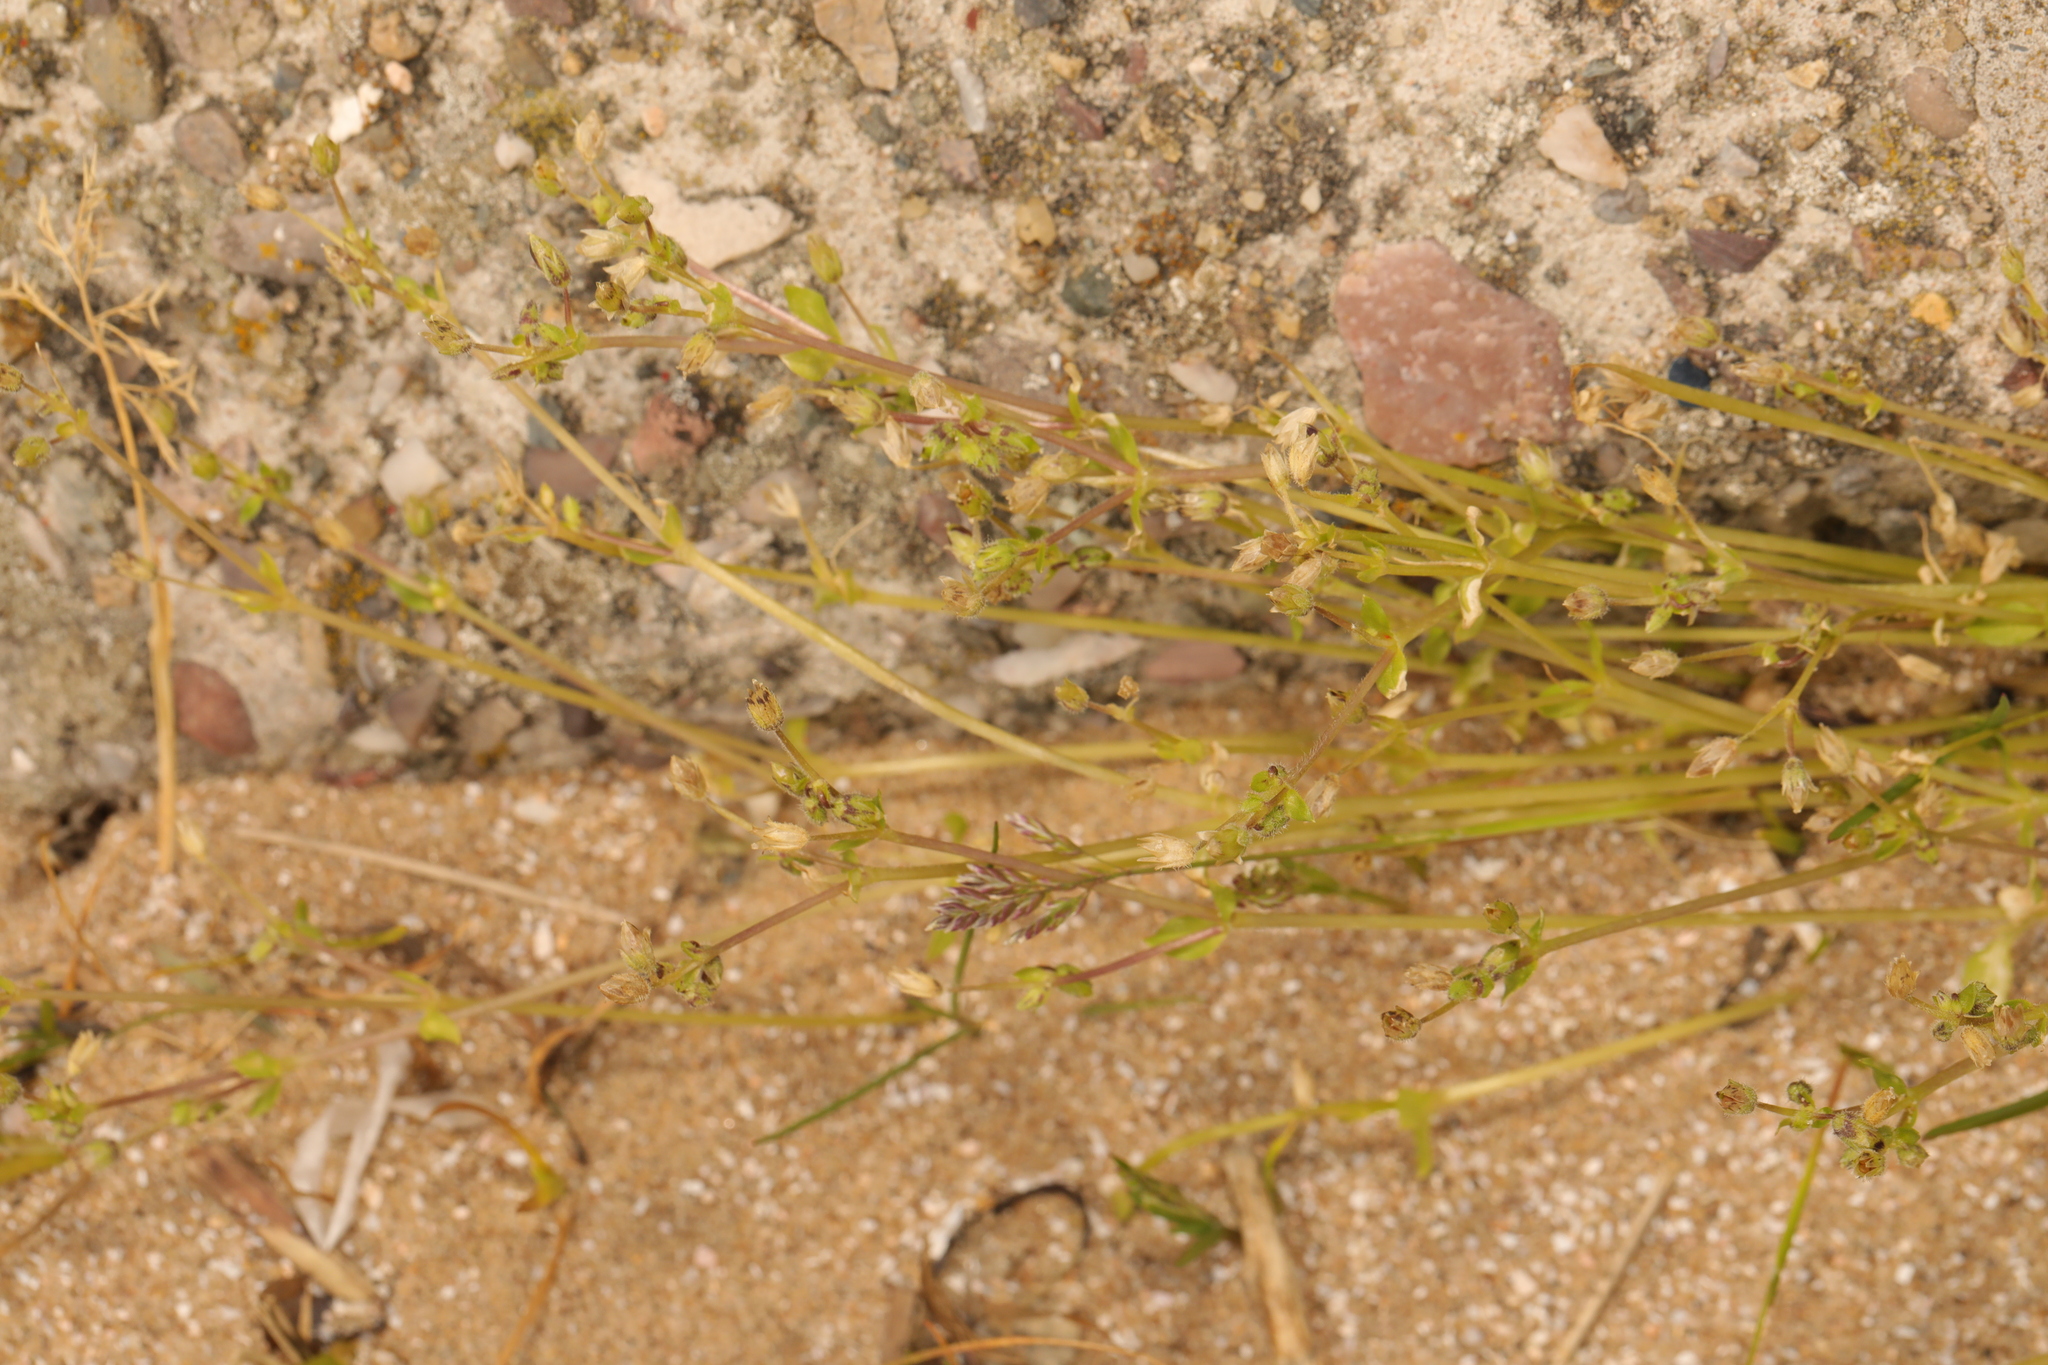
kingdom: Plantae
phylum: Tracheophyta
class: Magnoliopsida
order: Caryophyllales
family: Caryophyllaceae
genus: Stellaria
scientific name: Stellaria apetala
